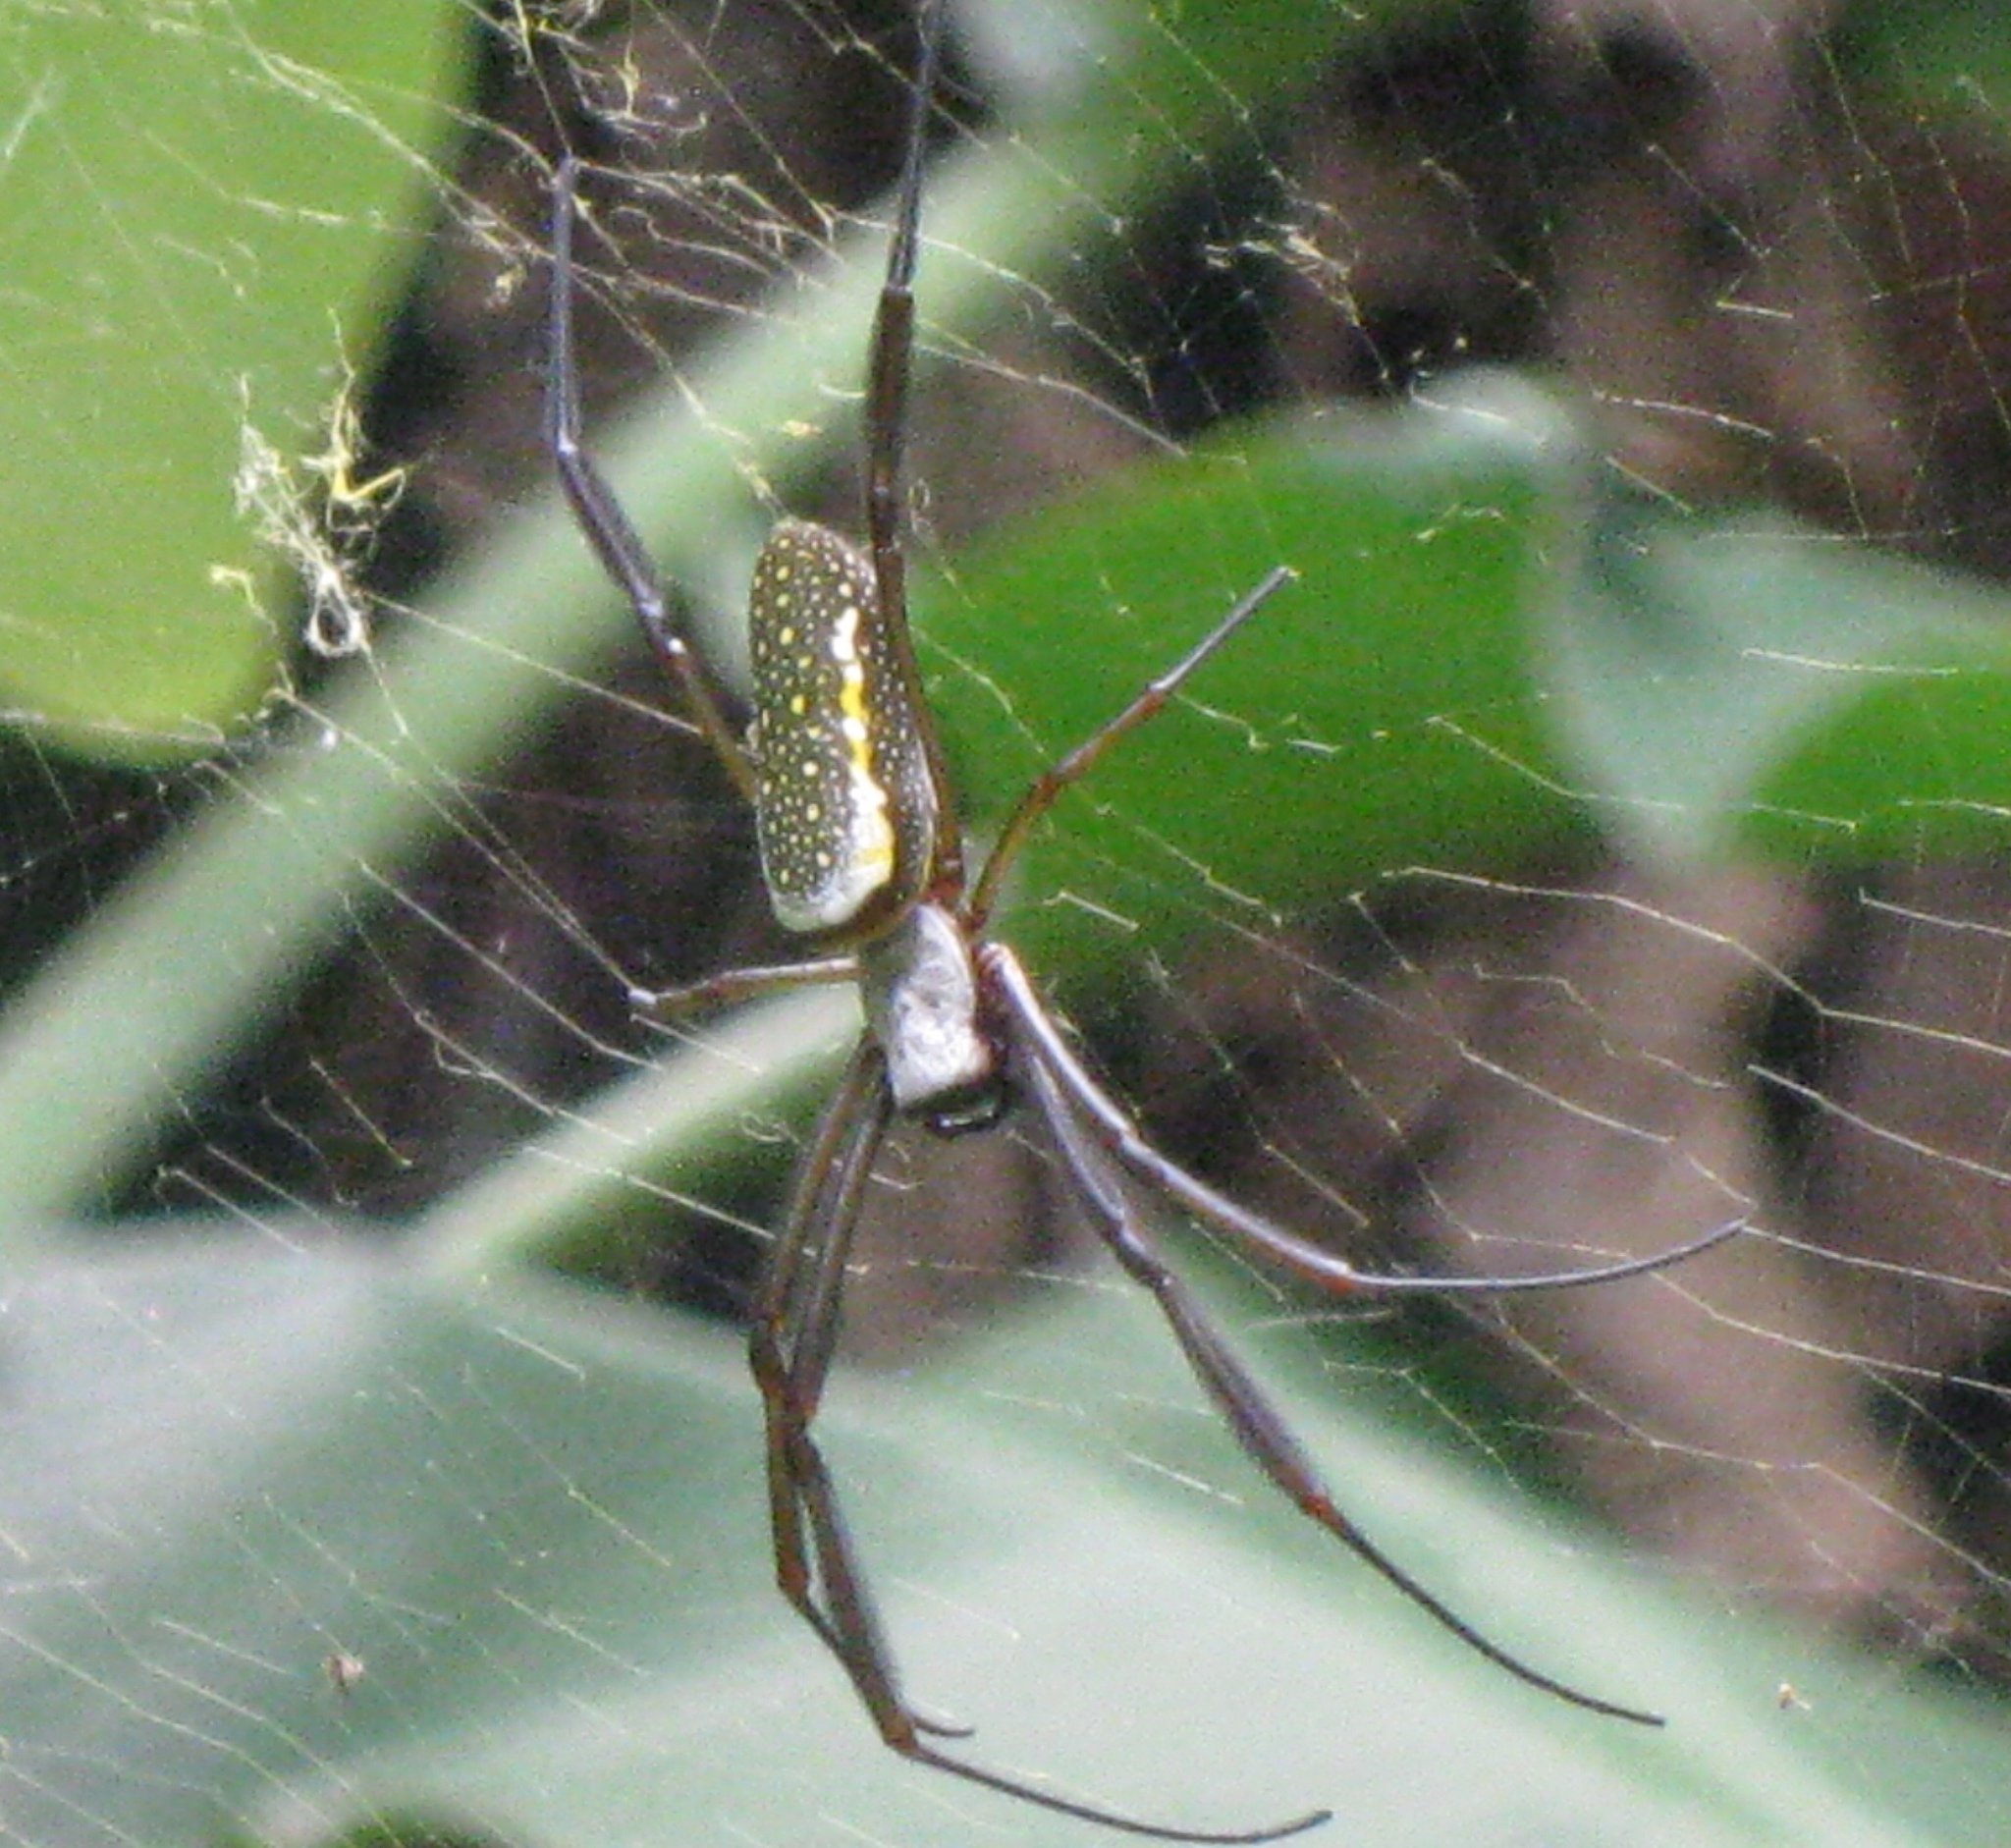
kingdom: Animalia
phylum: Arthropoda
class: Arachnida
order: Araneae
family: Araneidae
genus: Trichonephila
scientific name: Trichonephila clavipes
